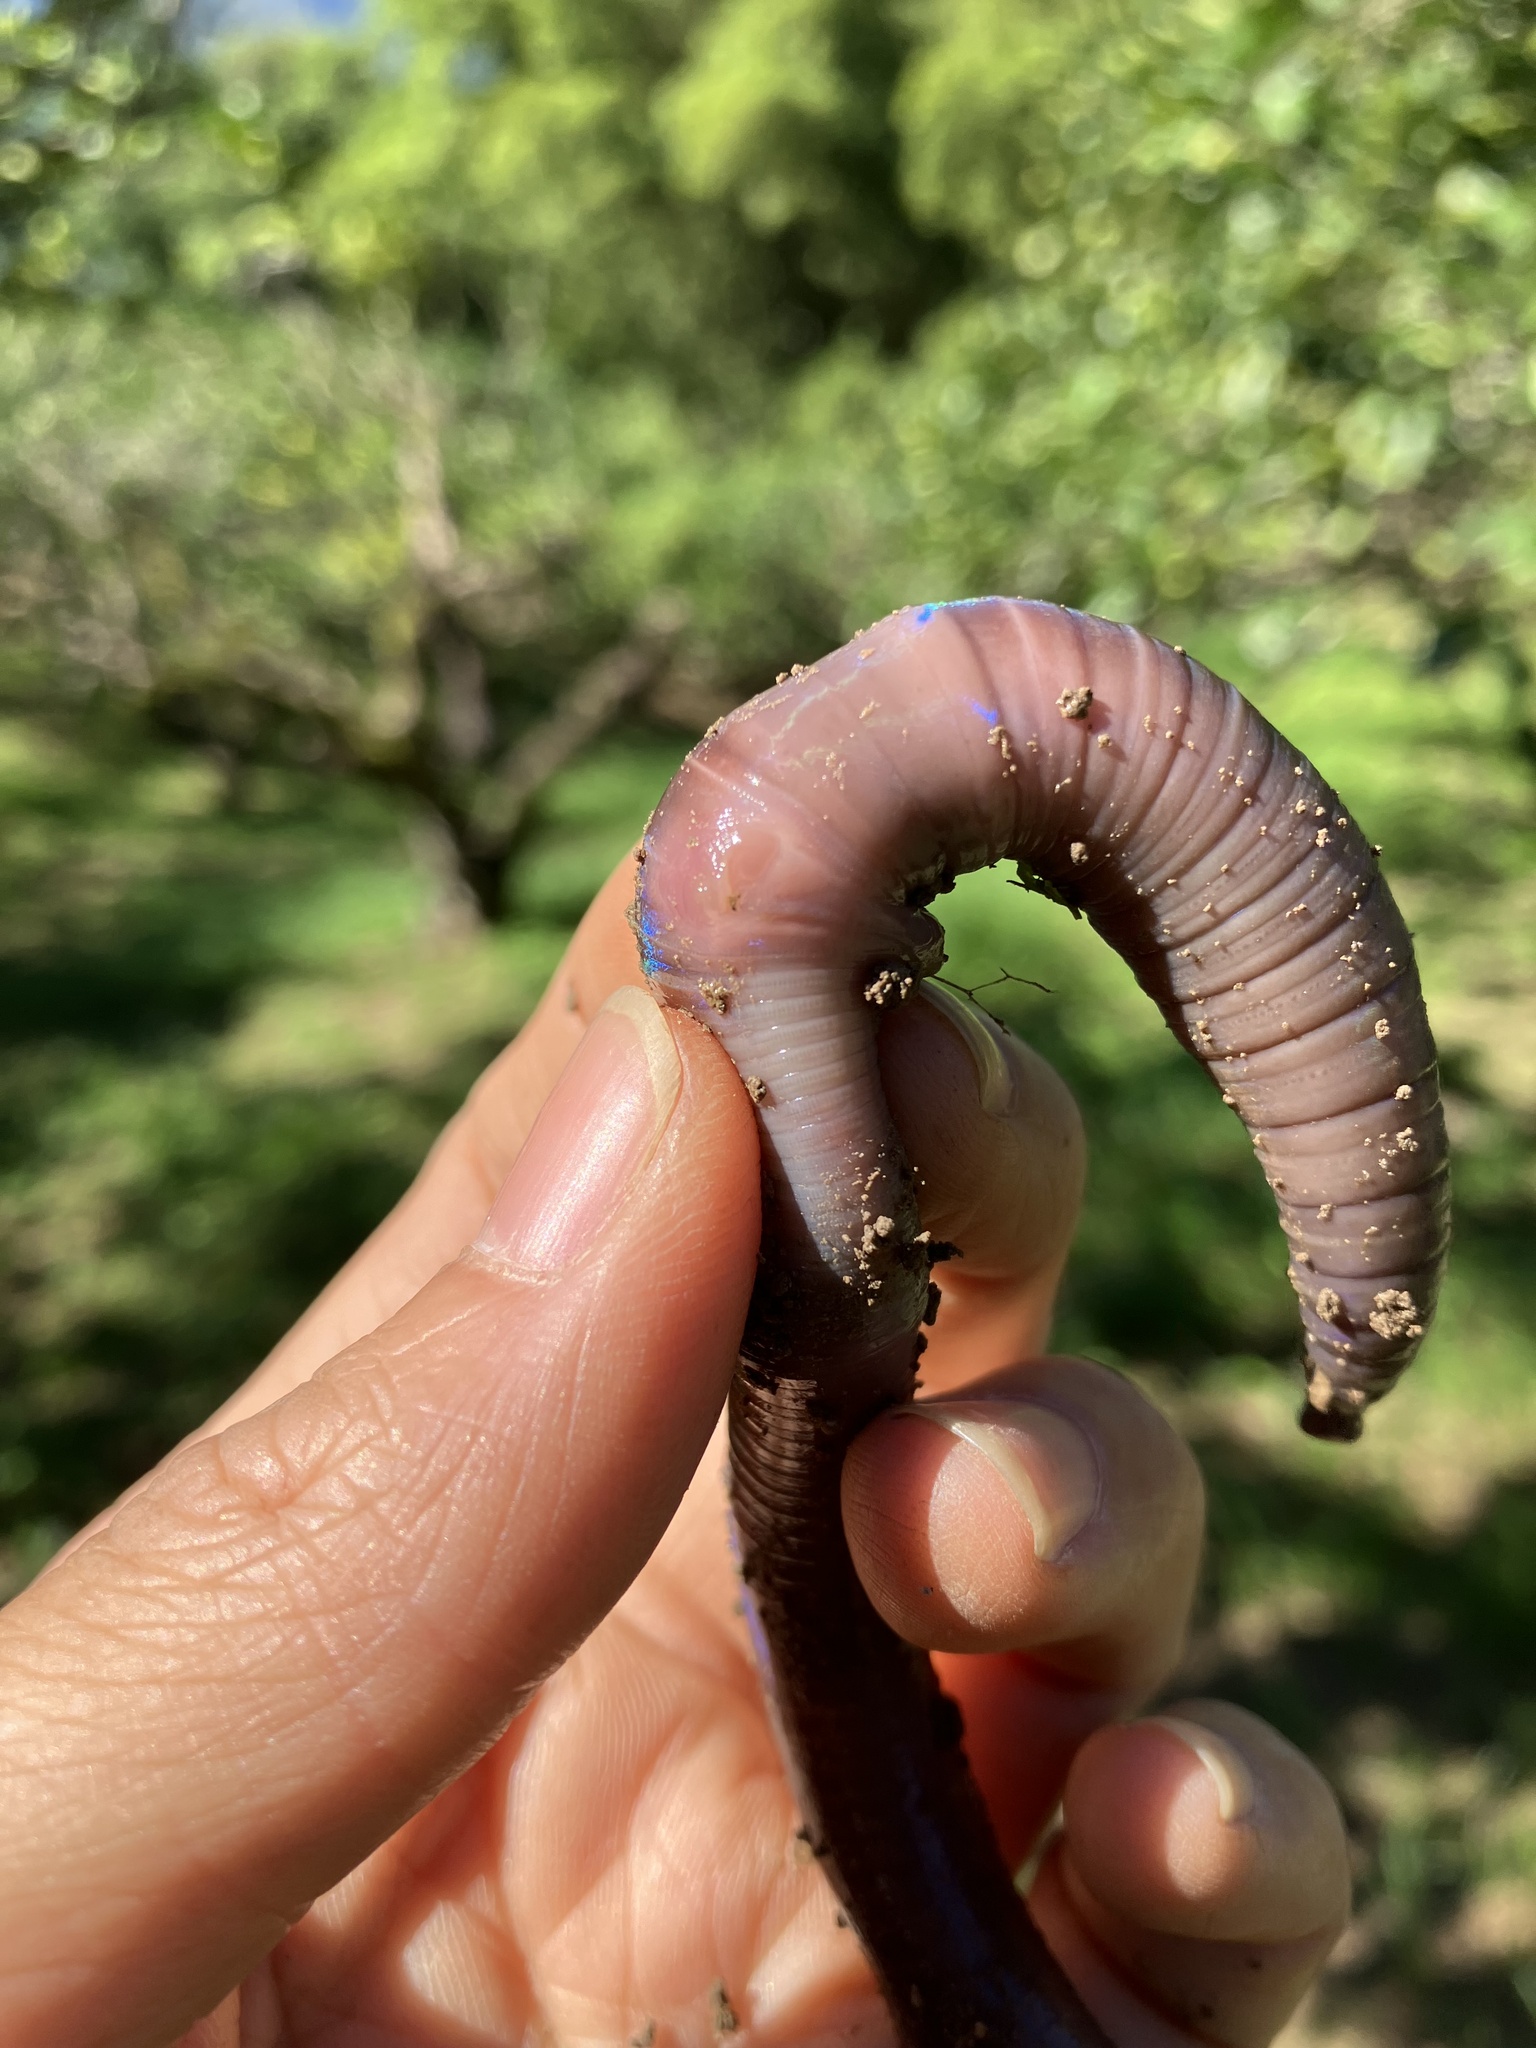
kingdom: Animalia
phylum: Annelida
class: Clitellata
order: Crassiclitellata
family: Megascolecidae
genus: Metaphire
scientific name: Metaphire paiwanna
